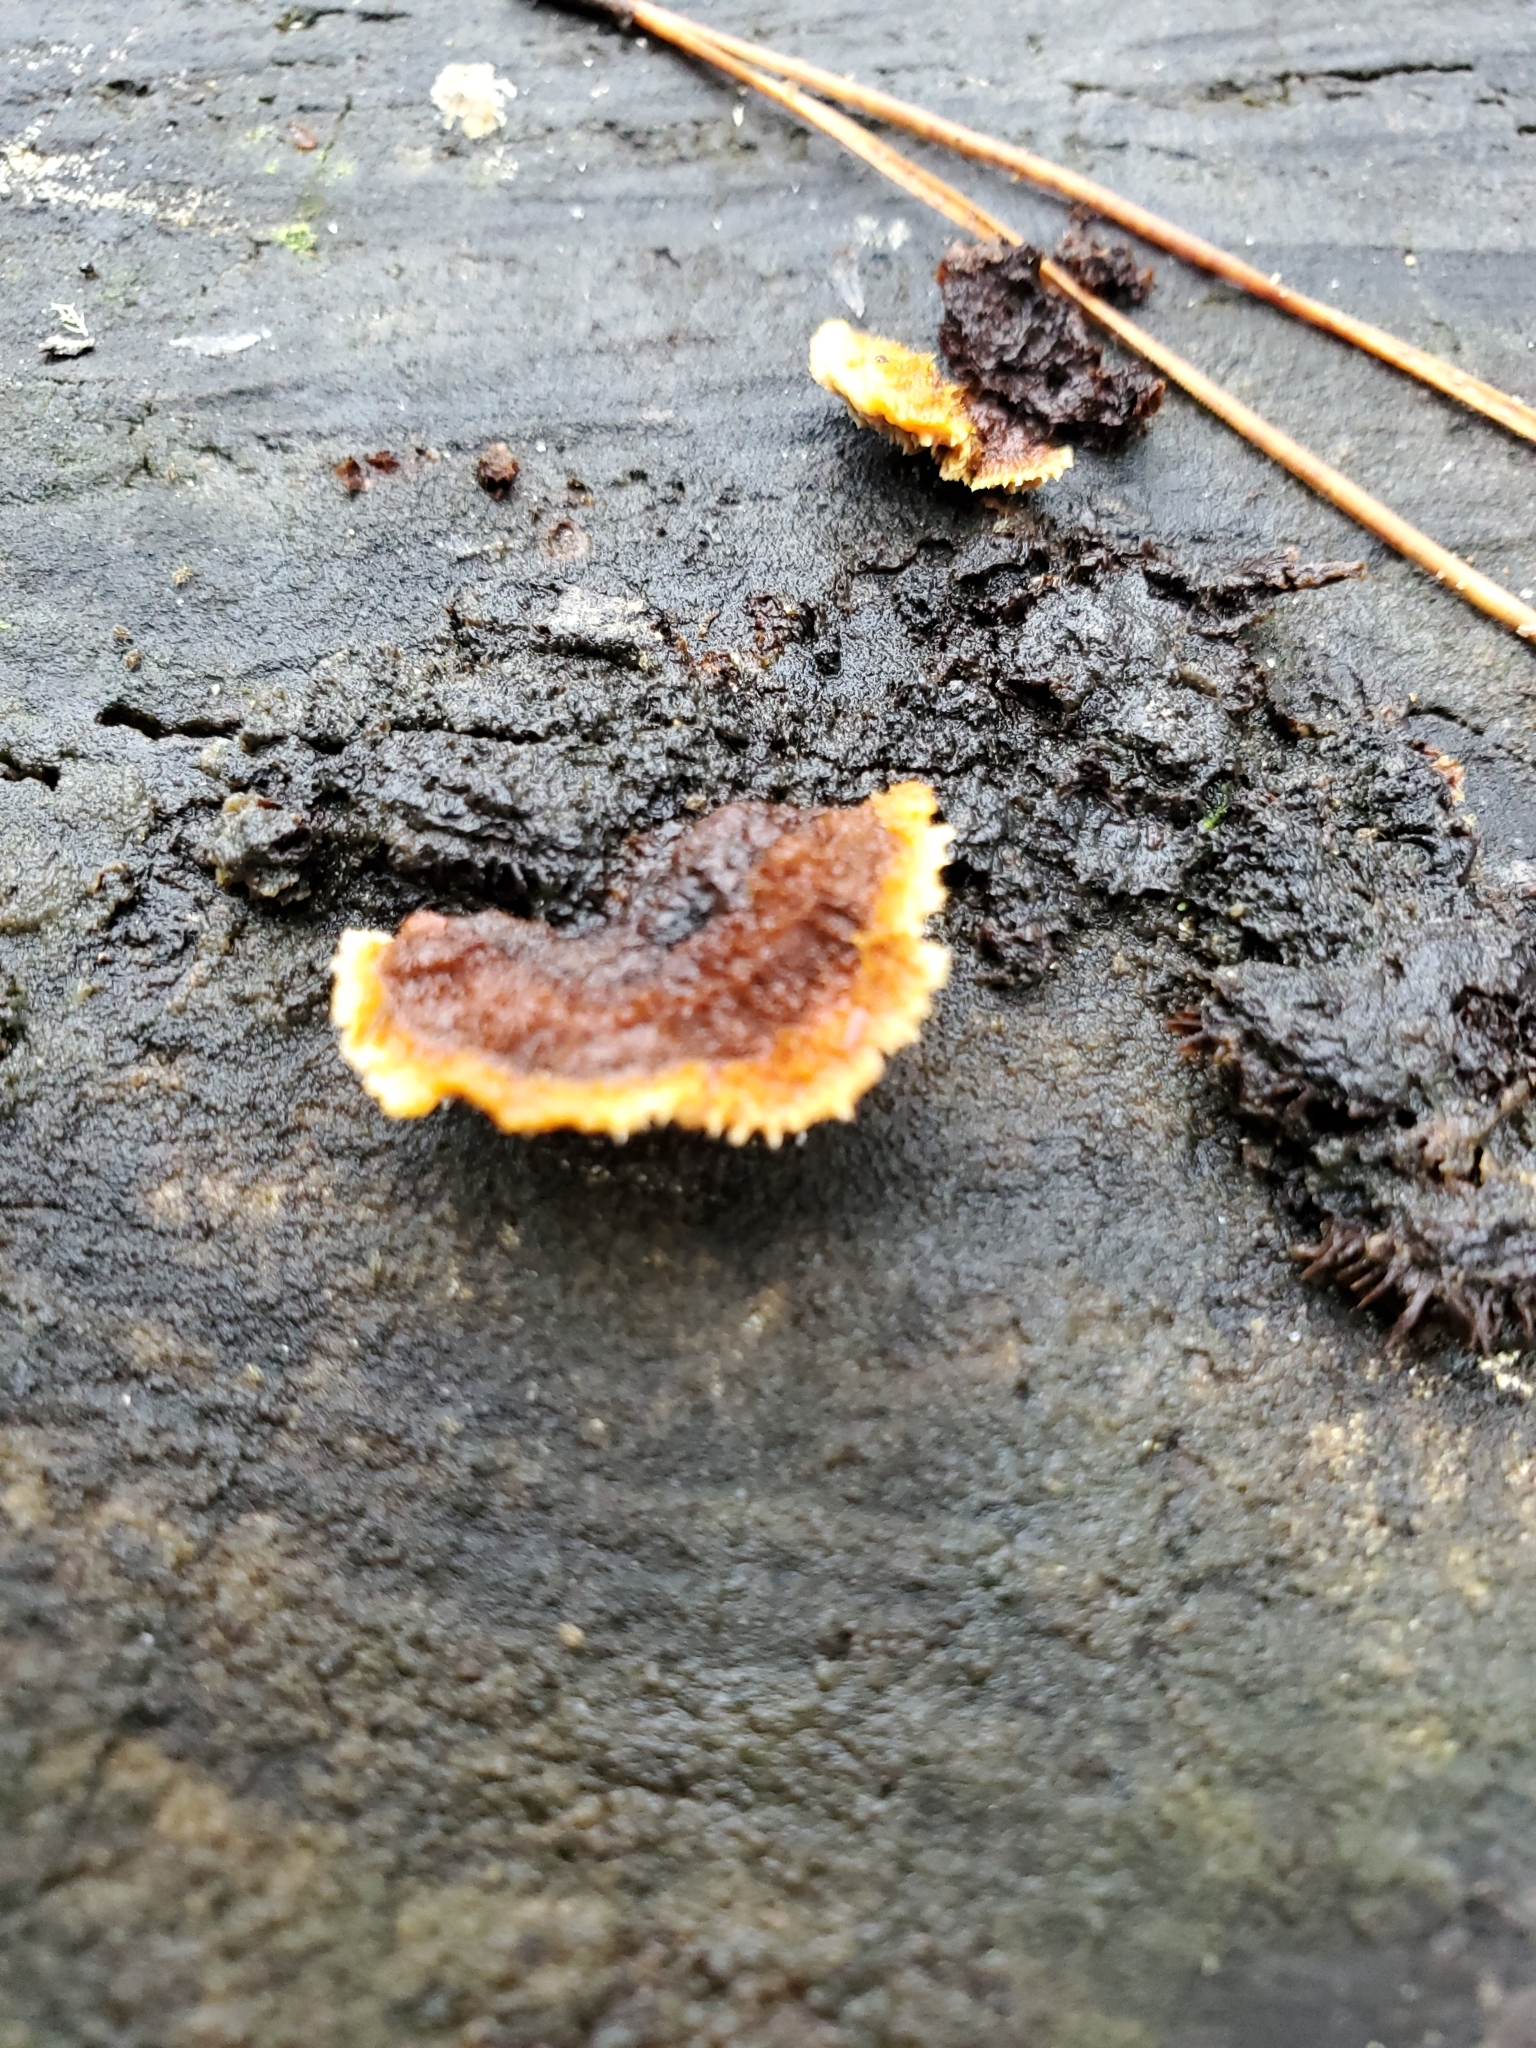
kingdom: Fungi
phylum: Basidiomycota
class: Agaricomycetes
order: Gloeophyllales
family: Gloeophyllaceae
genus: Gloeophyllum
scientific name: Gloeophyllum sepiarium
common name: Conifer mazegill
